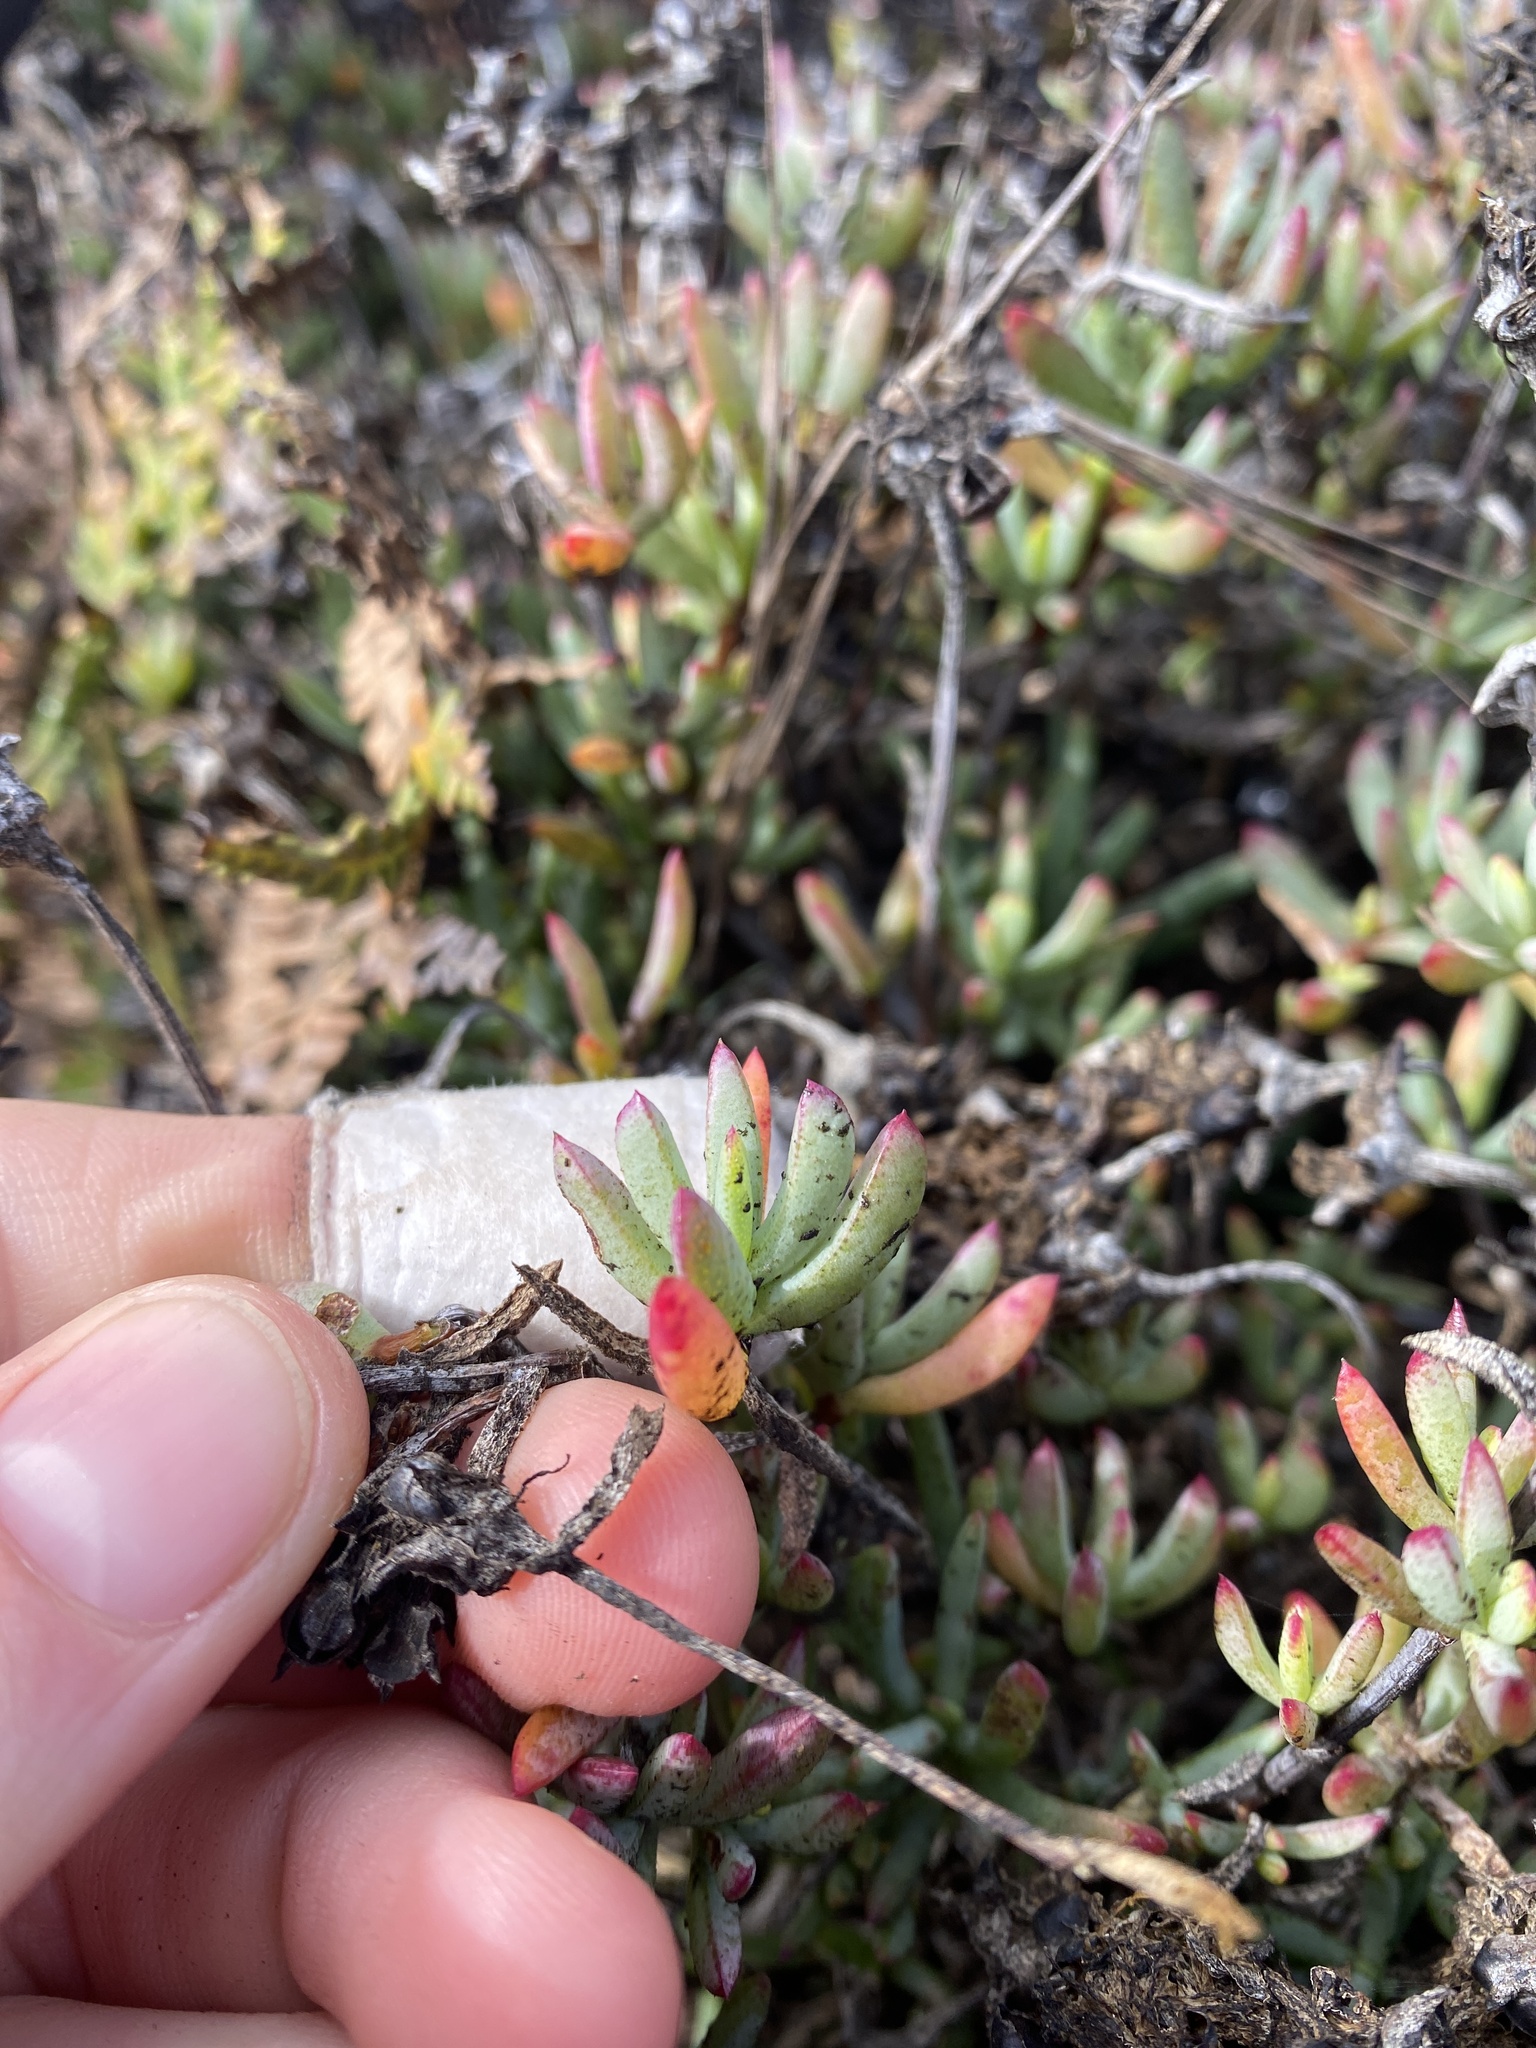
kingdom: Plantae
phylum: Tracheophyta
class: Magnoliopsida
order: Caryophyllales
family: Aizoaceae
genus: Malephora
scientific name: Malephora crocea
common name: Coppery mesemb
